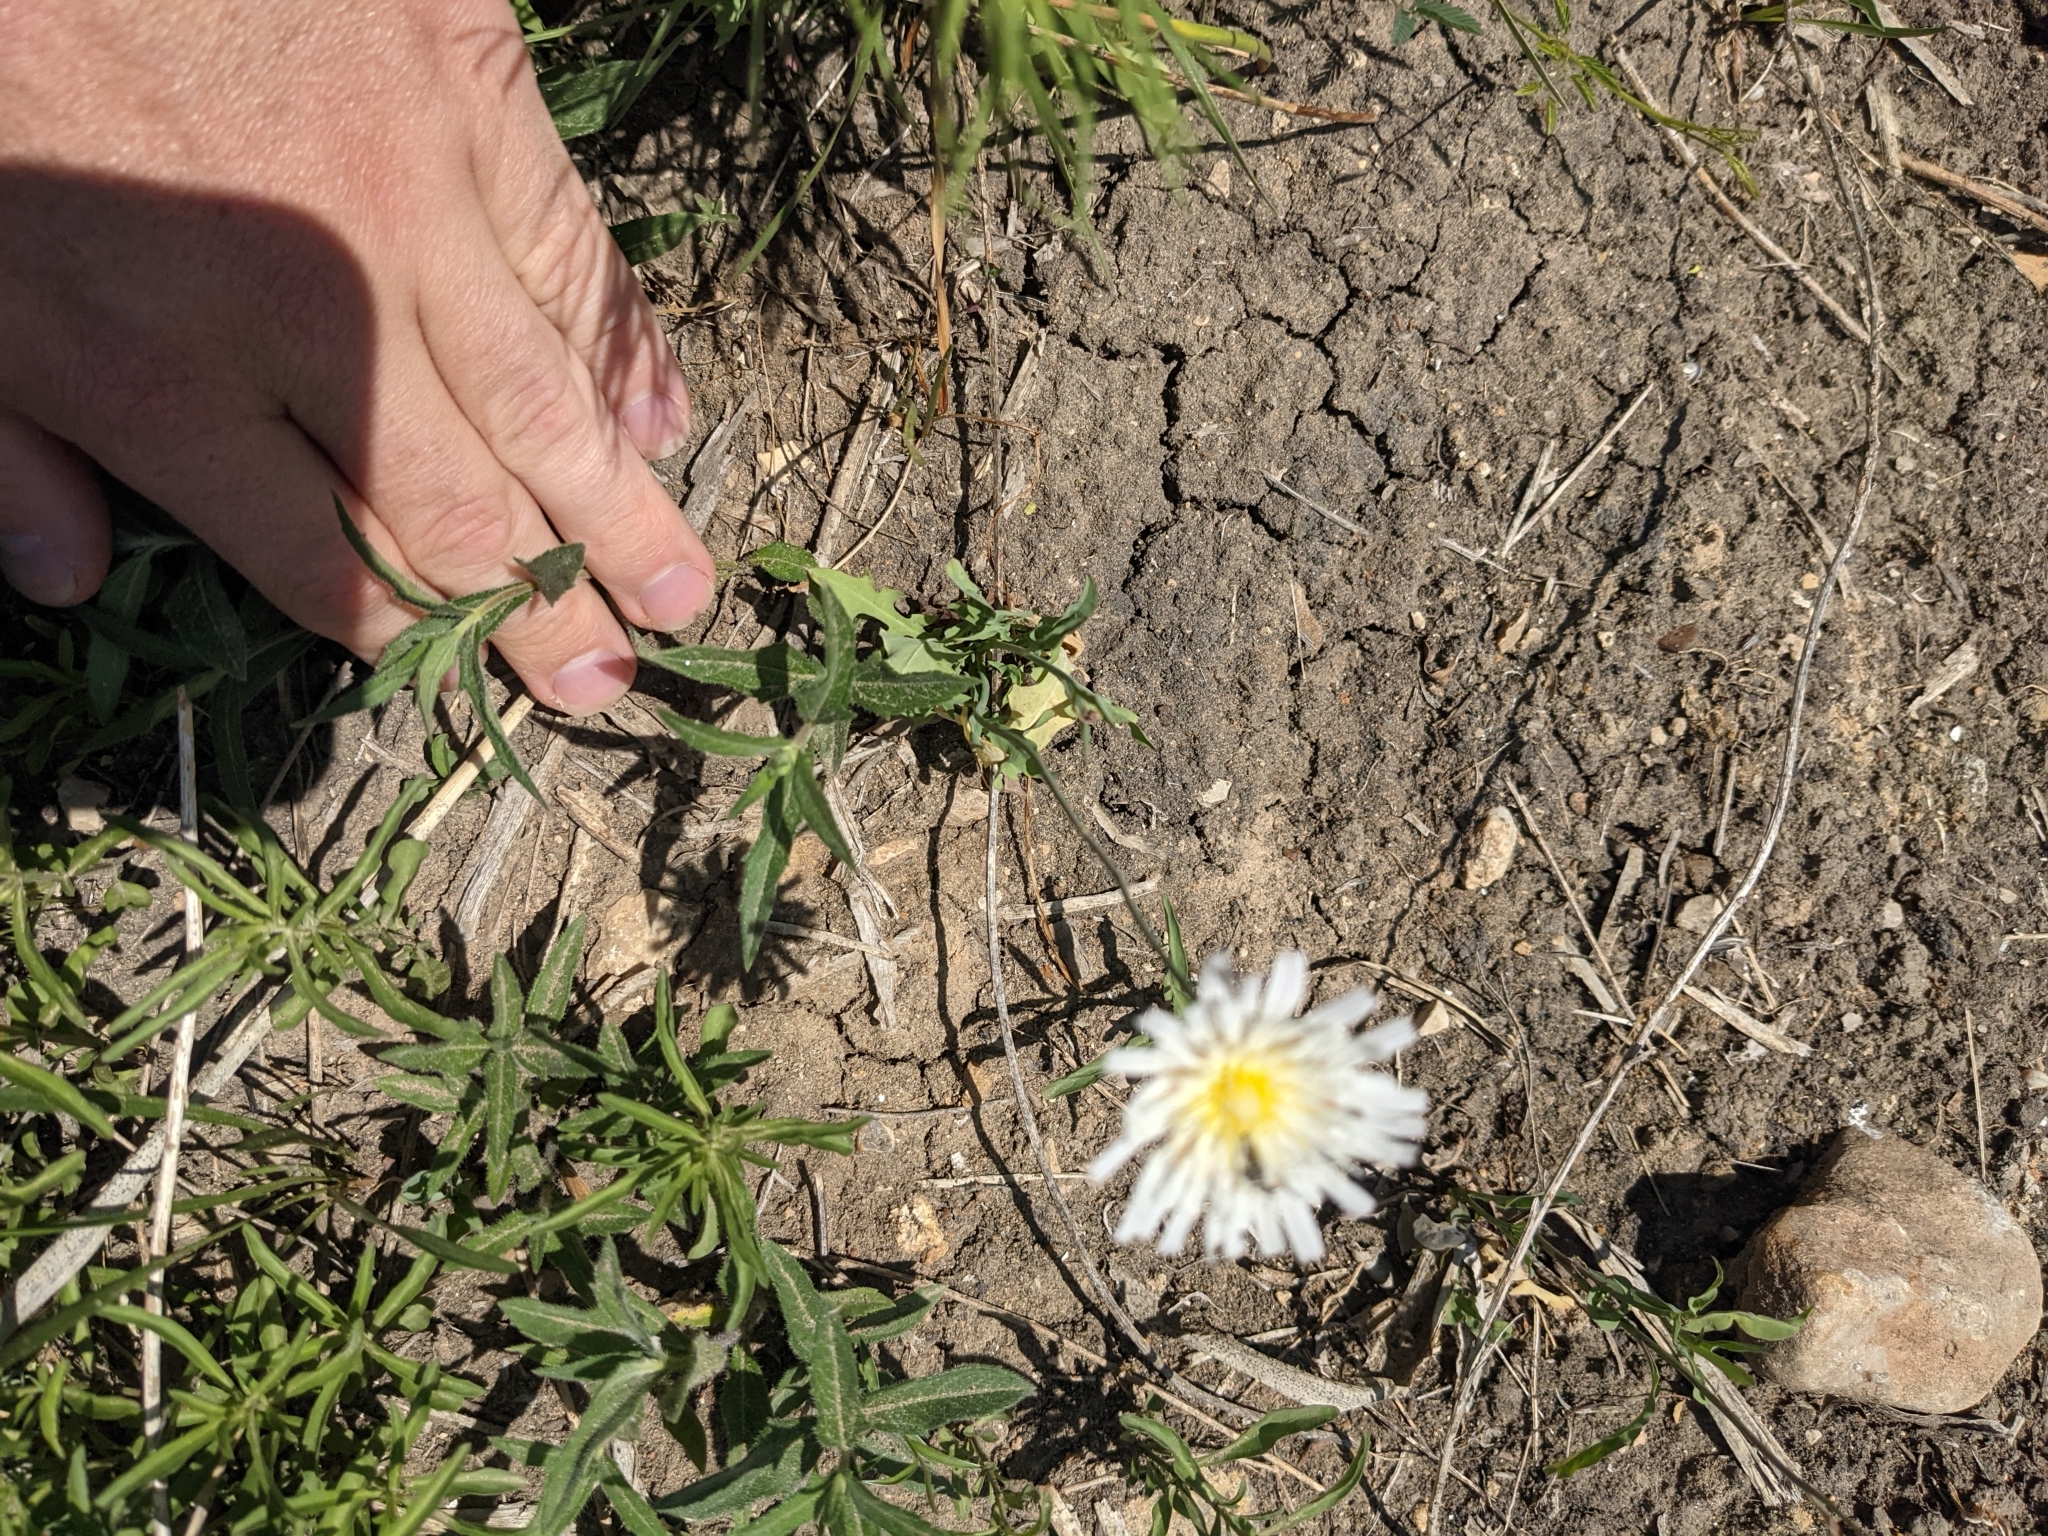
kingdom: Plantae
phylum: Tracheophyta
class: Magnoliopsida
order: Asterales
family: Asteraceae
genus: Pinaropappus
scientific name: Pinaropappus roseus
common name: Rock-lettuce
